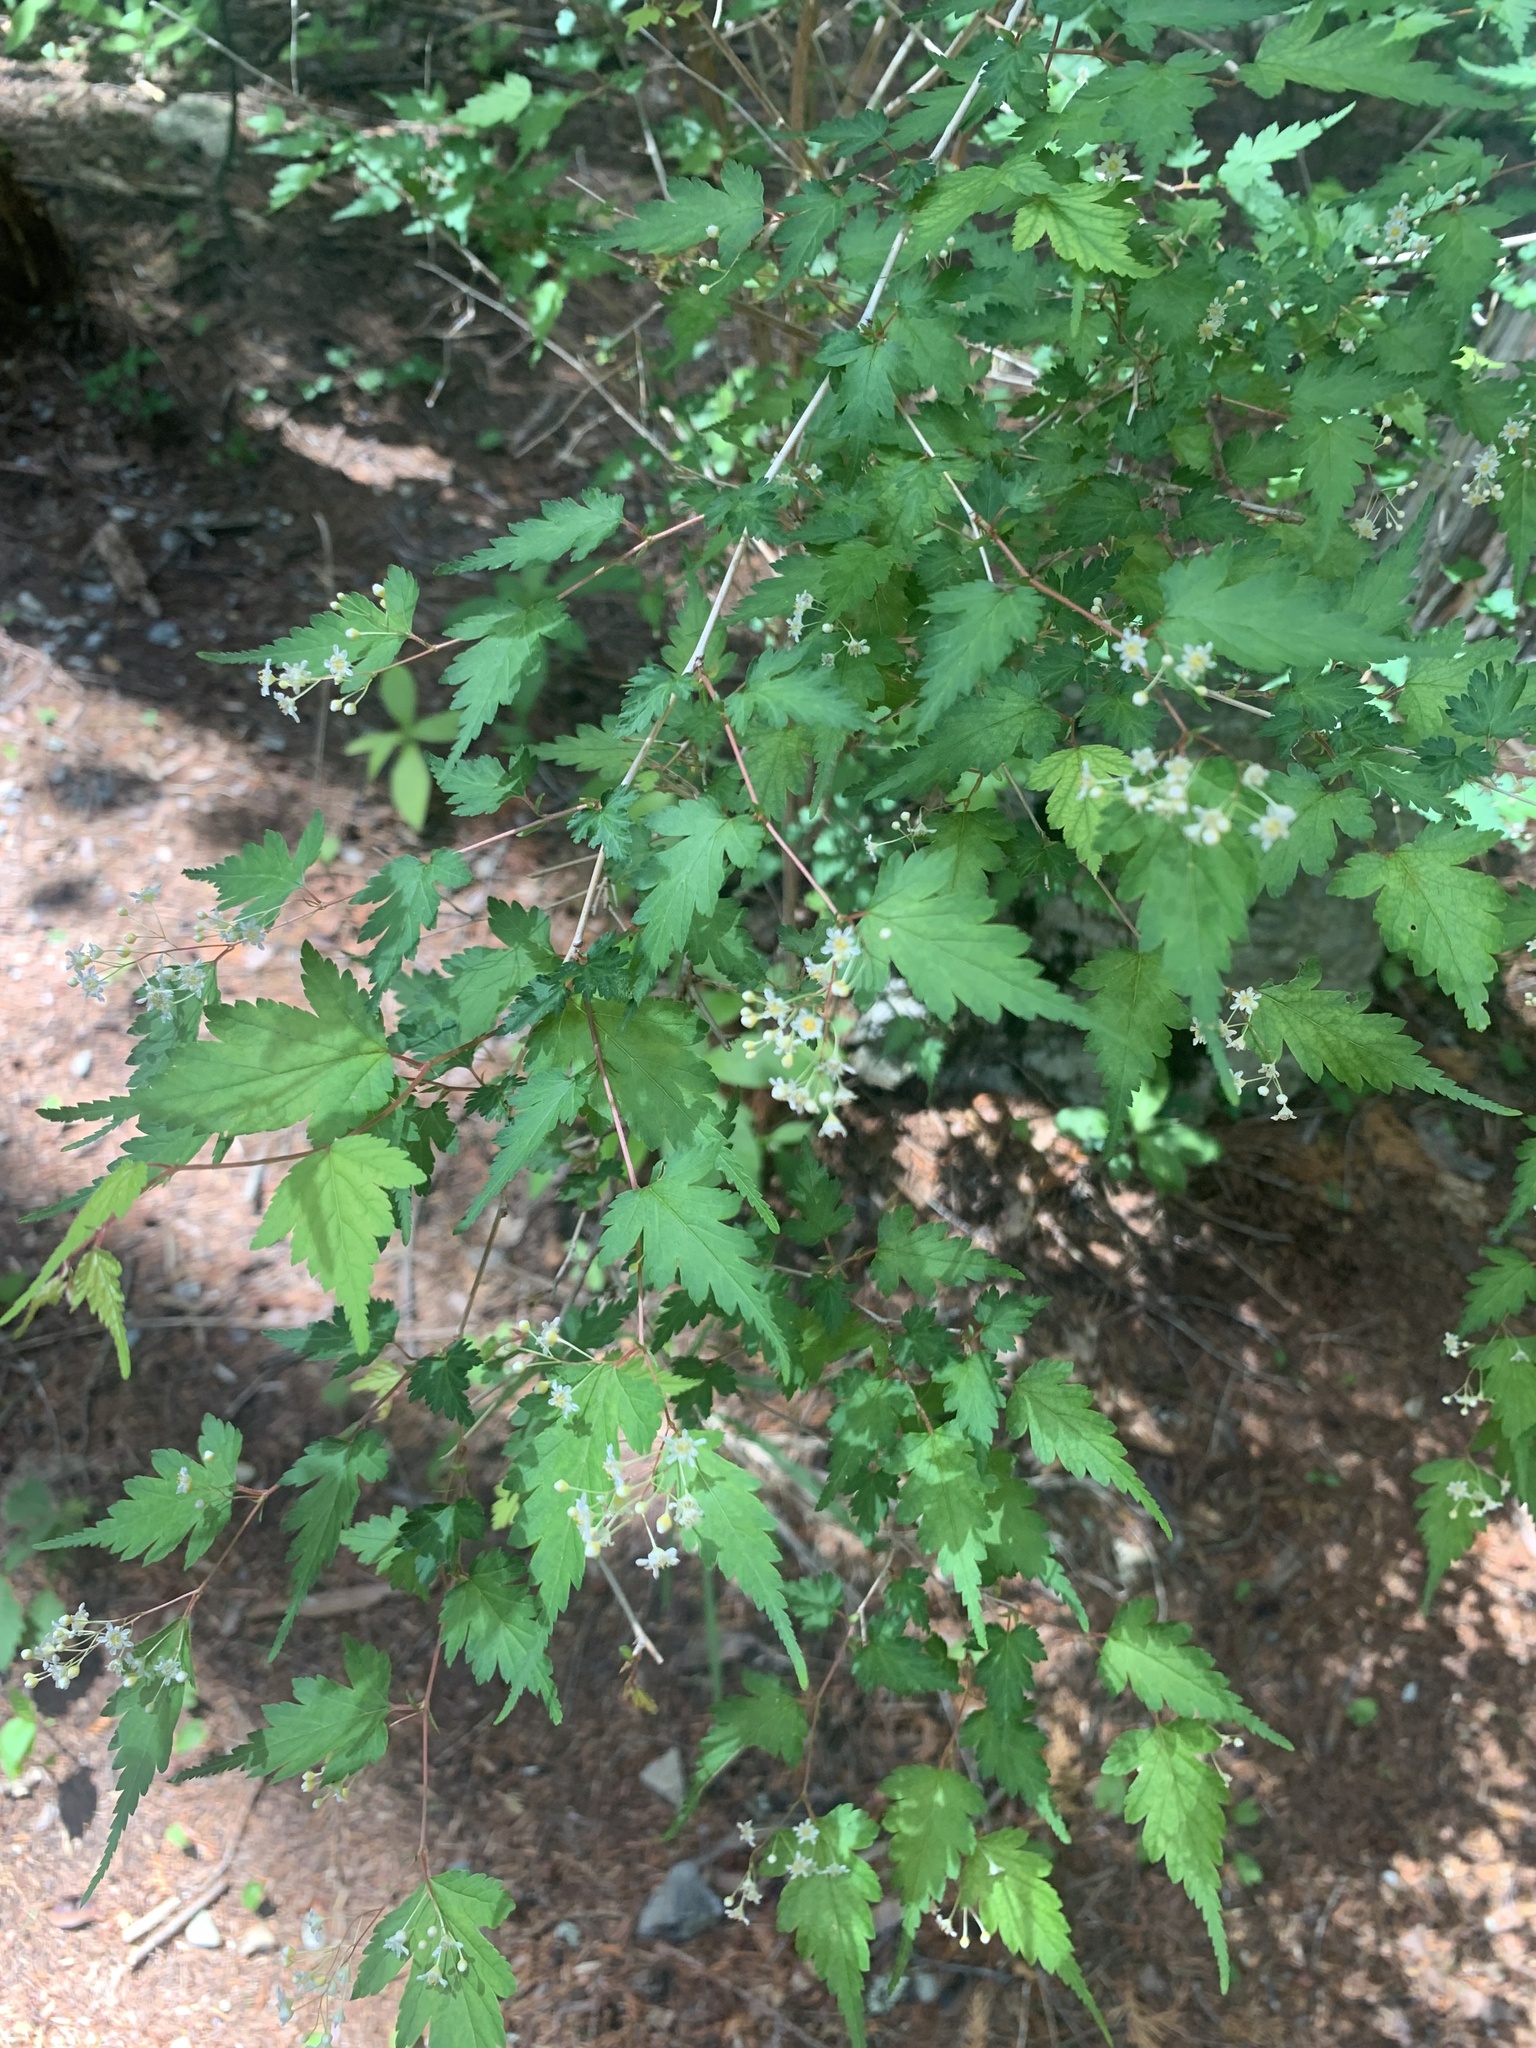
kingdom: Plantae
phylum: Tracheophyta
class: Magnoliopsida
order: Rosales
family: Rosaceae
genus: Neillia
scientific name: Neillia incisa
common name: Laceshrub
